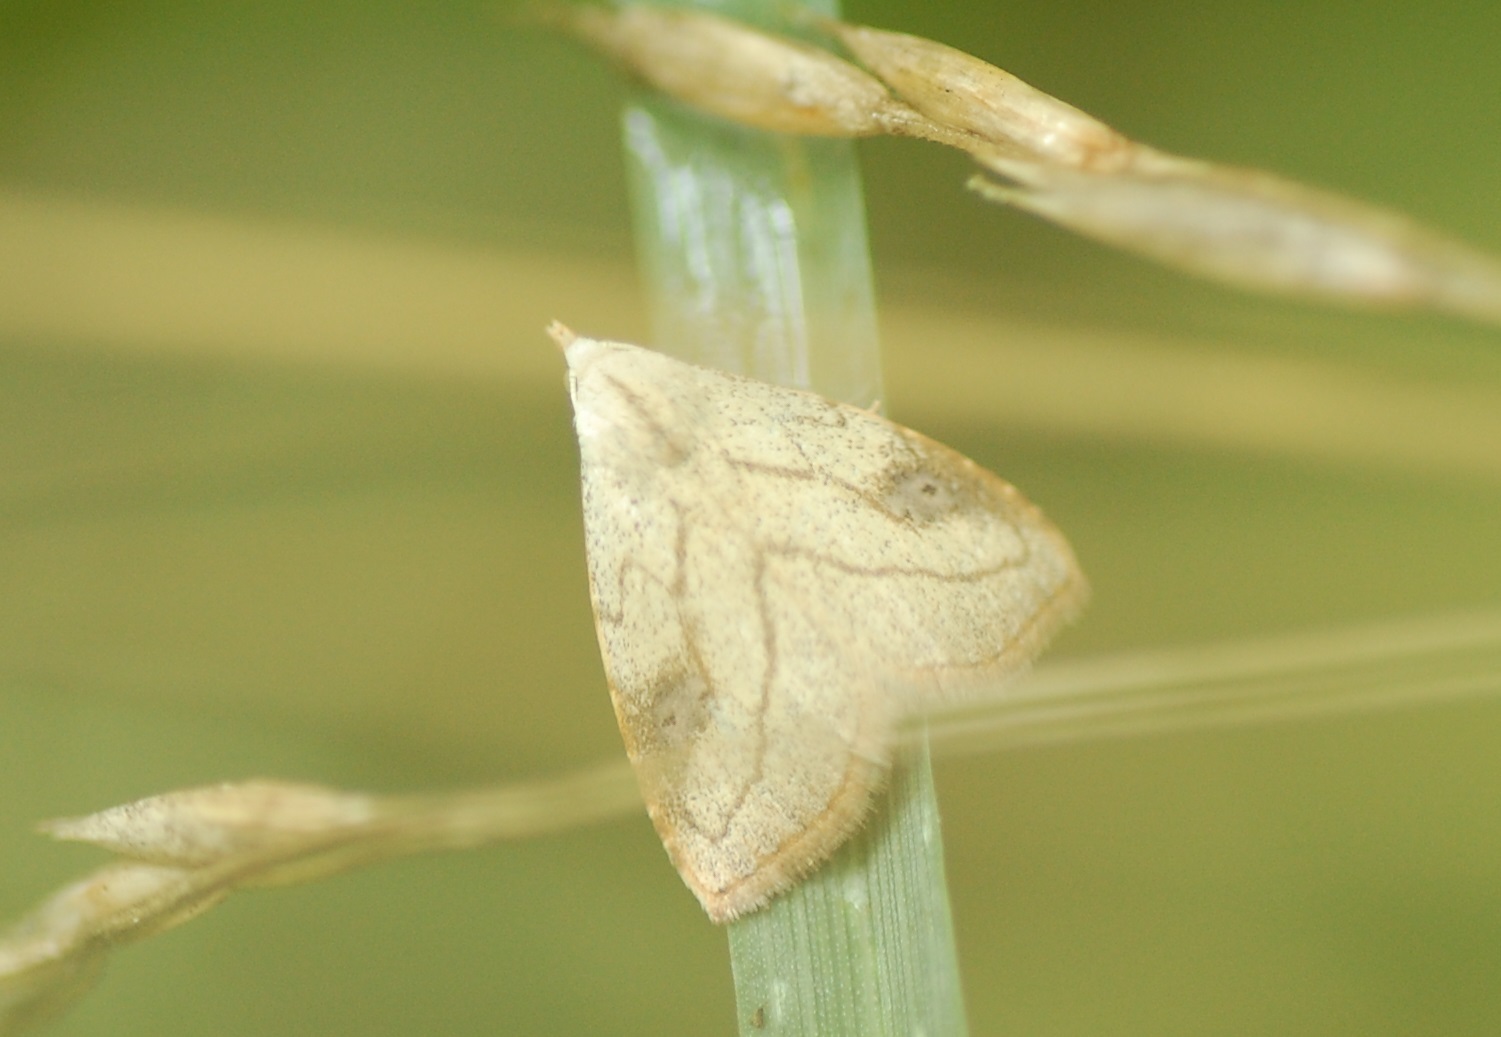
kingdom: Animalia
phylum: Arthropoda
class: Insecta
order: Lepidoptera
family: Erebidae
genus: Rivula
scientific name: Rivula propinqualis
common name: Spotted grass moth
